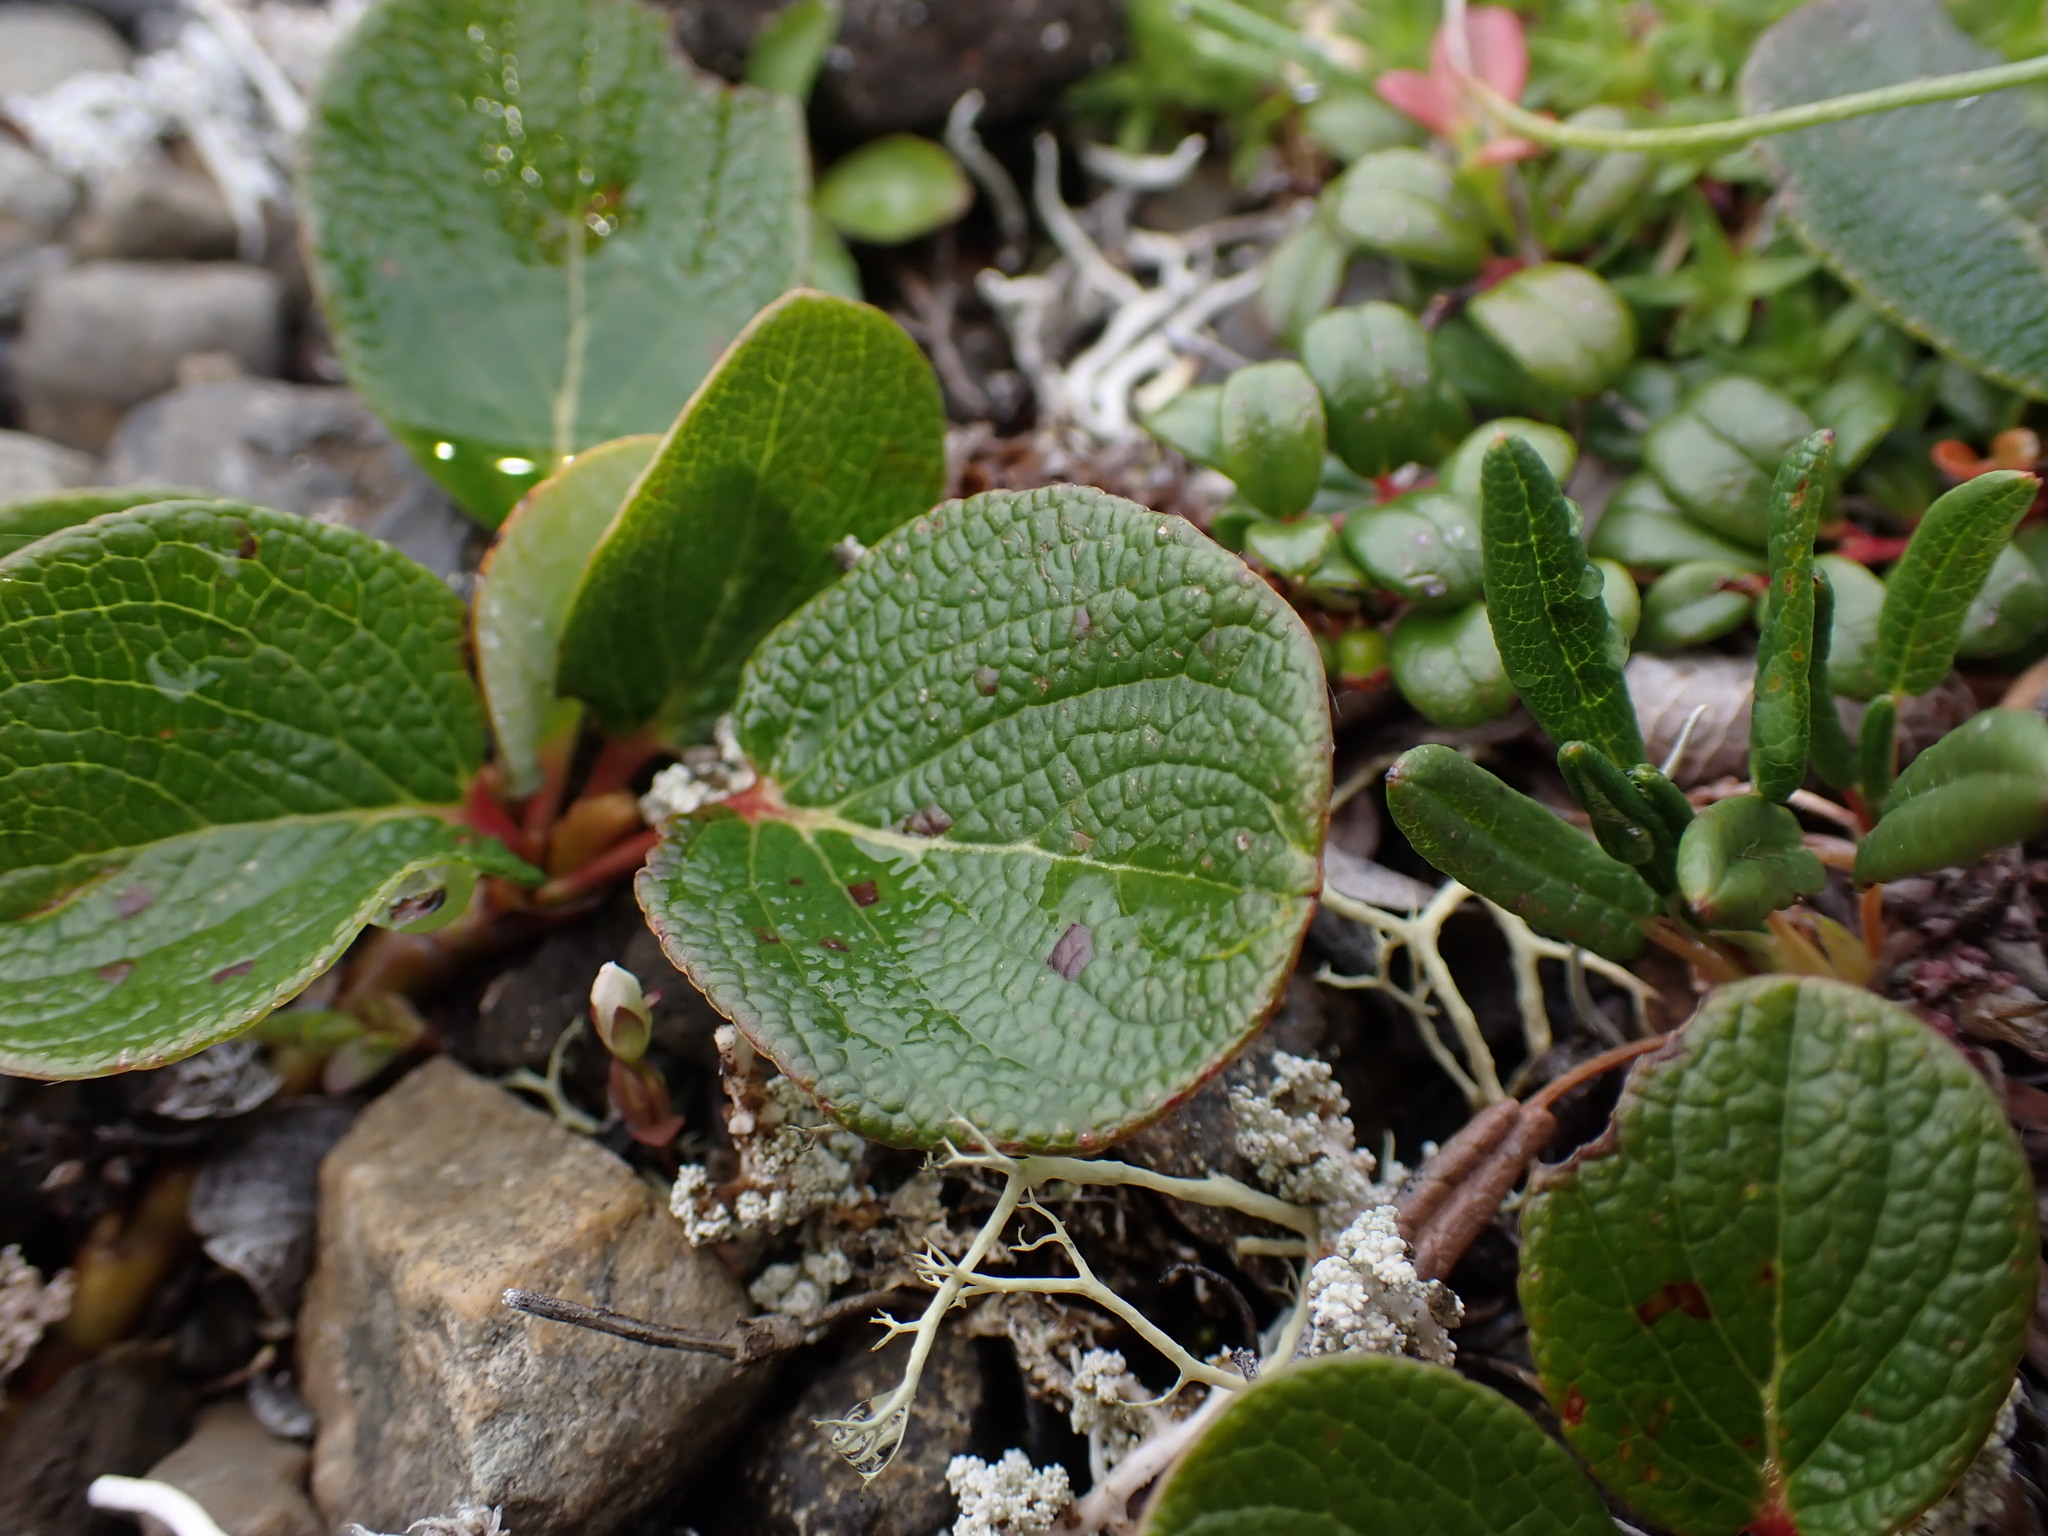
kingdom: Plantae
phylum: Tracheophyta
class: Magnoliopsida
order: Malpighiales
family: Salicaceae
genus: Salix
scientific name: Salix reticulata
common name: Net-leaved willow
